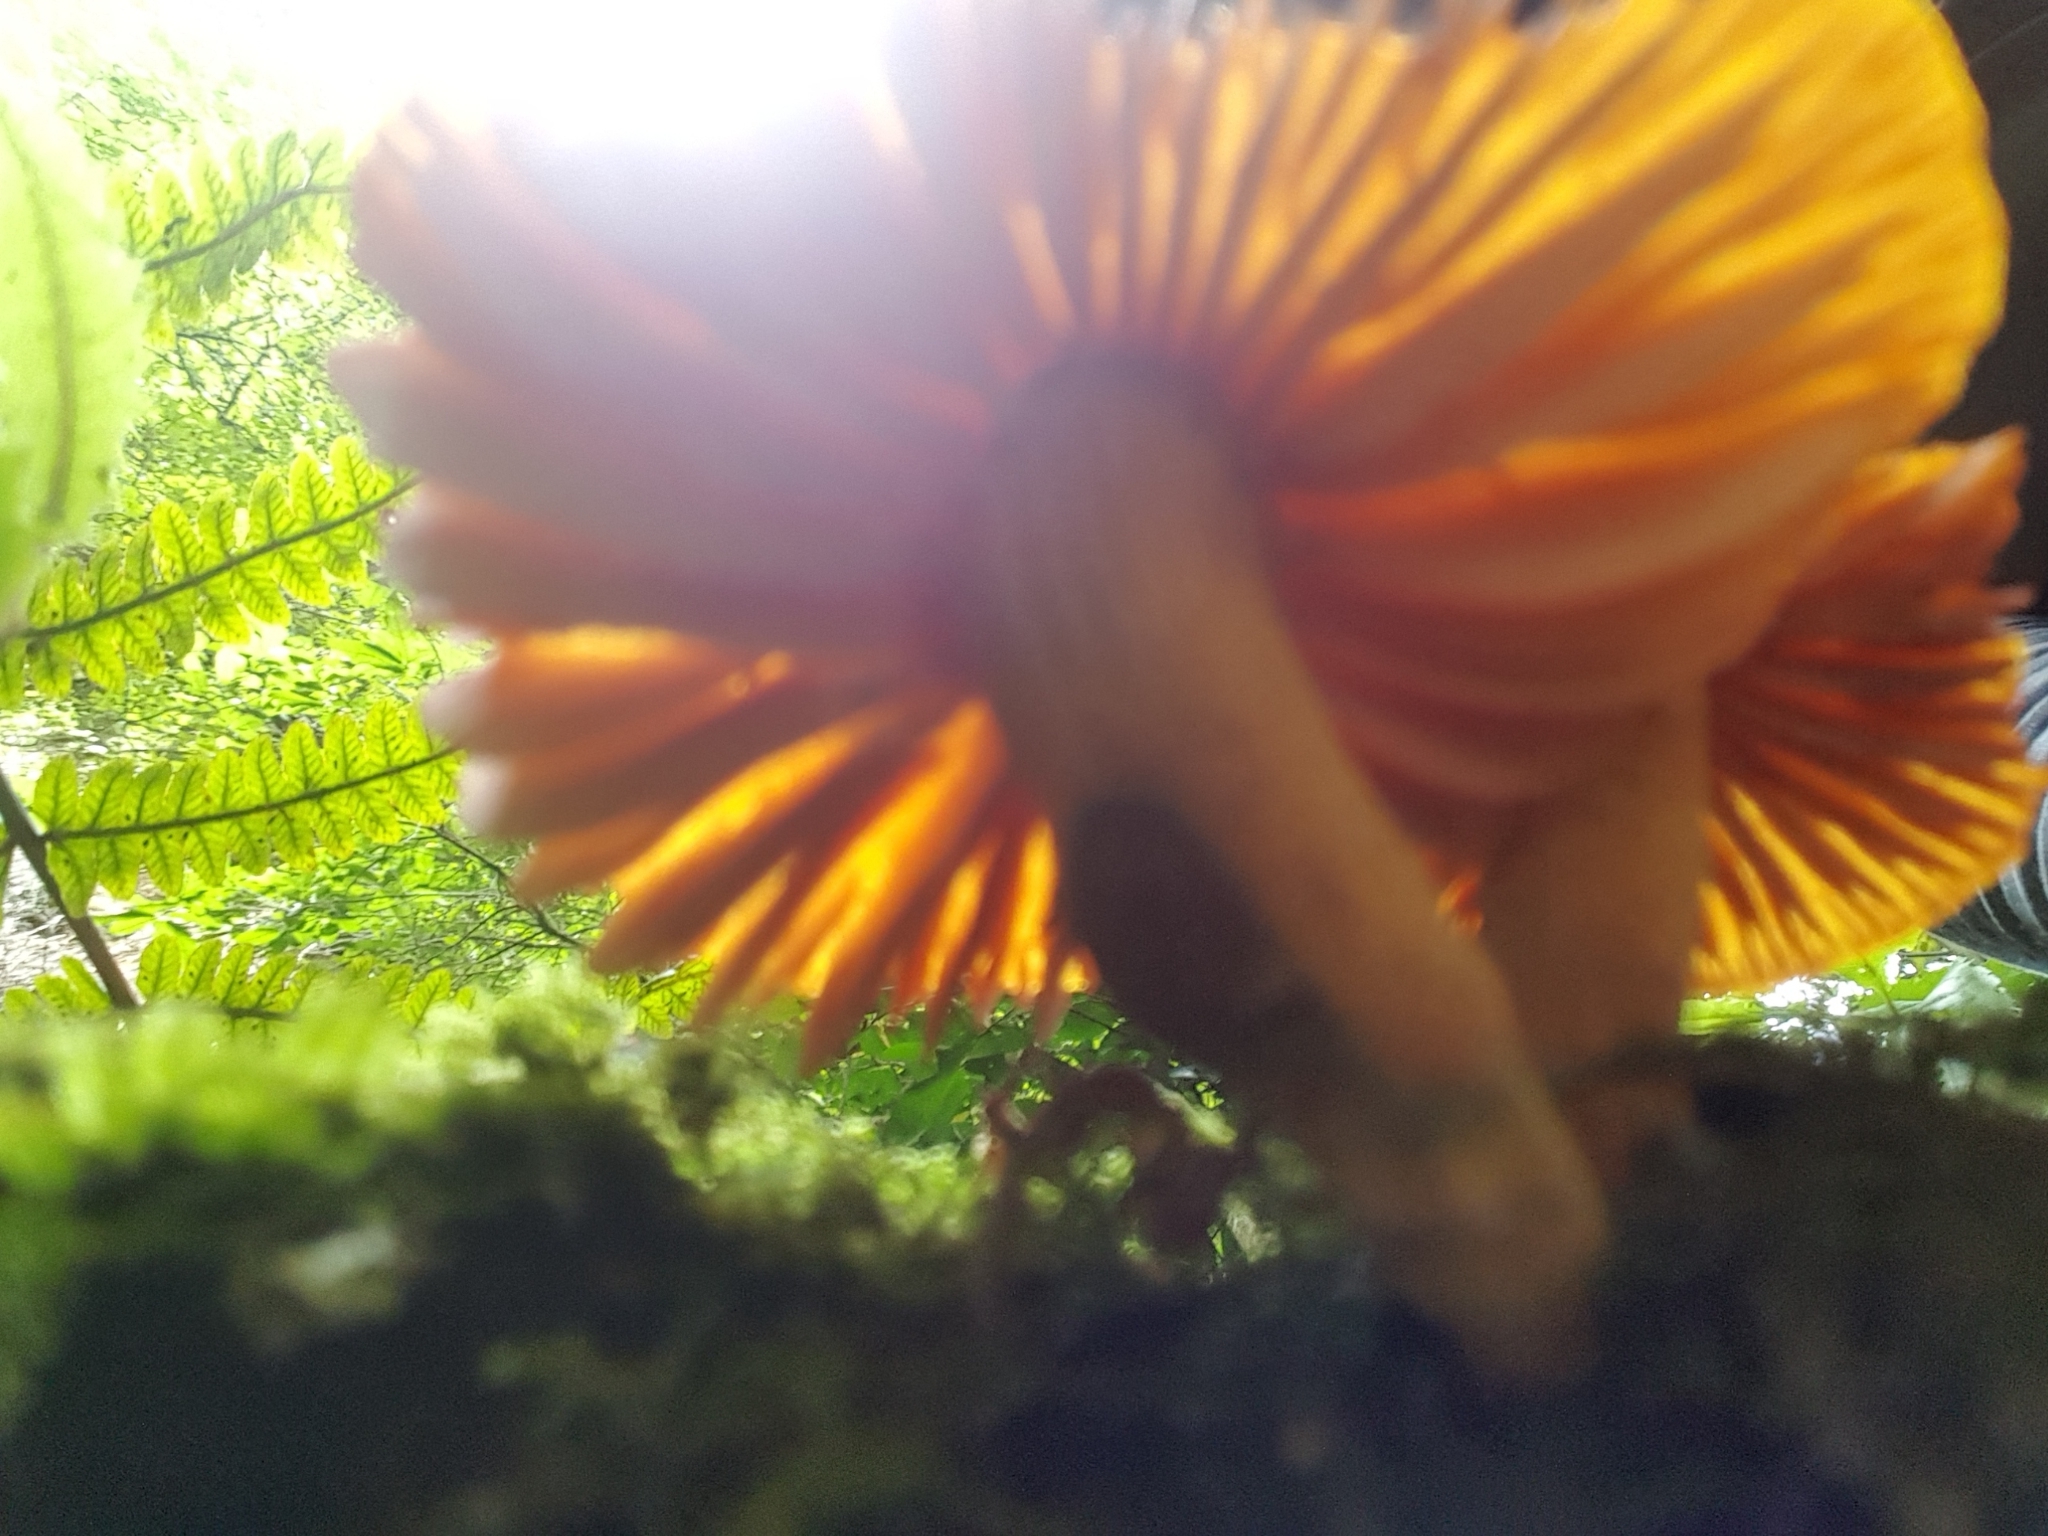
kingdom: Fungi
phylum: Basidiomycota
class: Agaricomycetes
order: Agaricales
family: Mycenaceae
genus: Heimiomyces
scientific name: Heimiomyces velutipes
